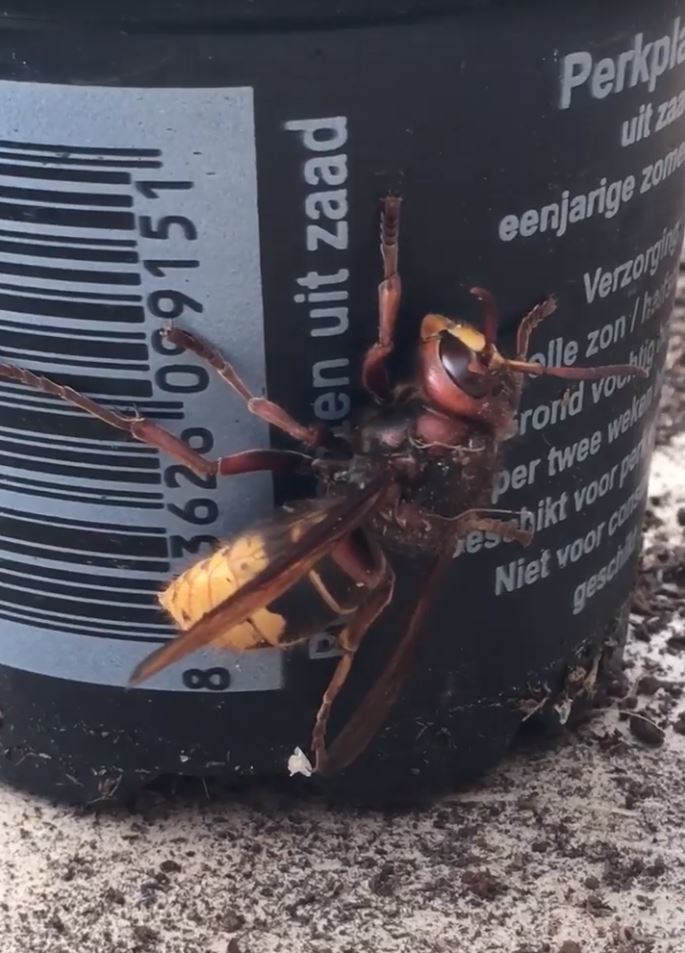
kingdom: Animalia
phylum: Arthropoda
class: Insecta
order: Hymenoptera
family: Vespidae
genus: Vespa
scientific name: Vespa crabro
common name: Hornet
